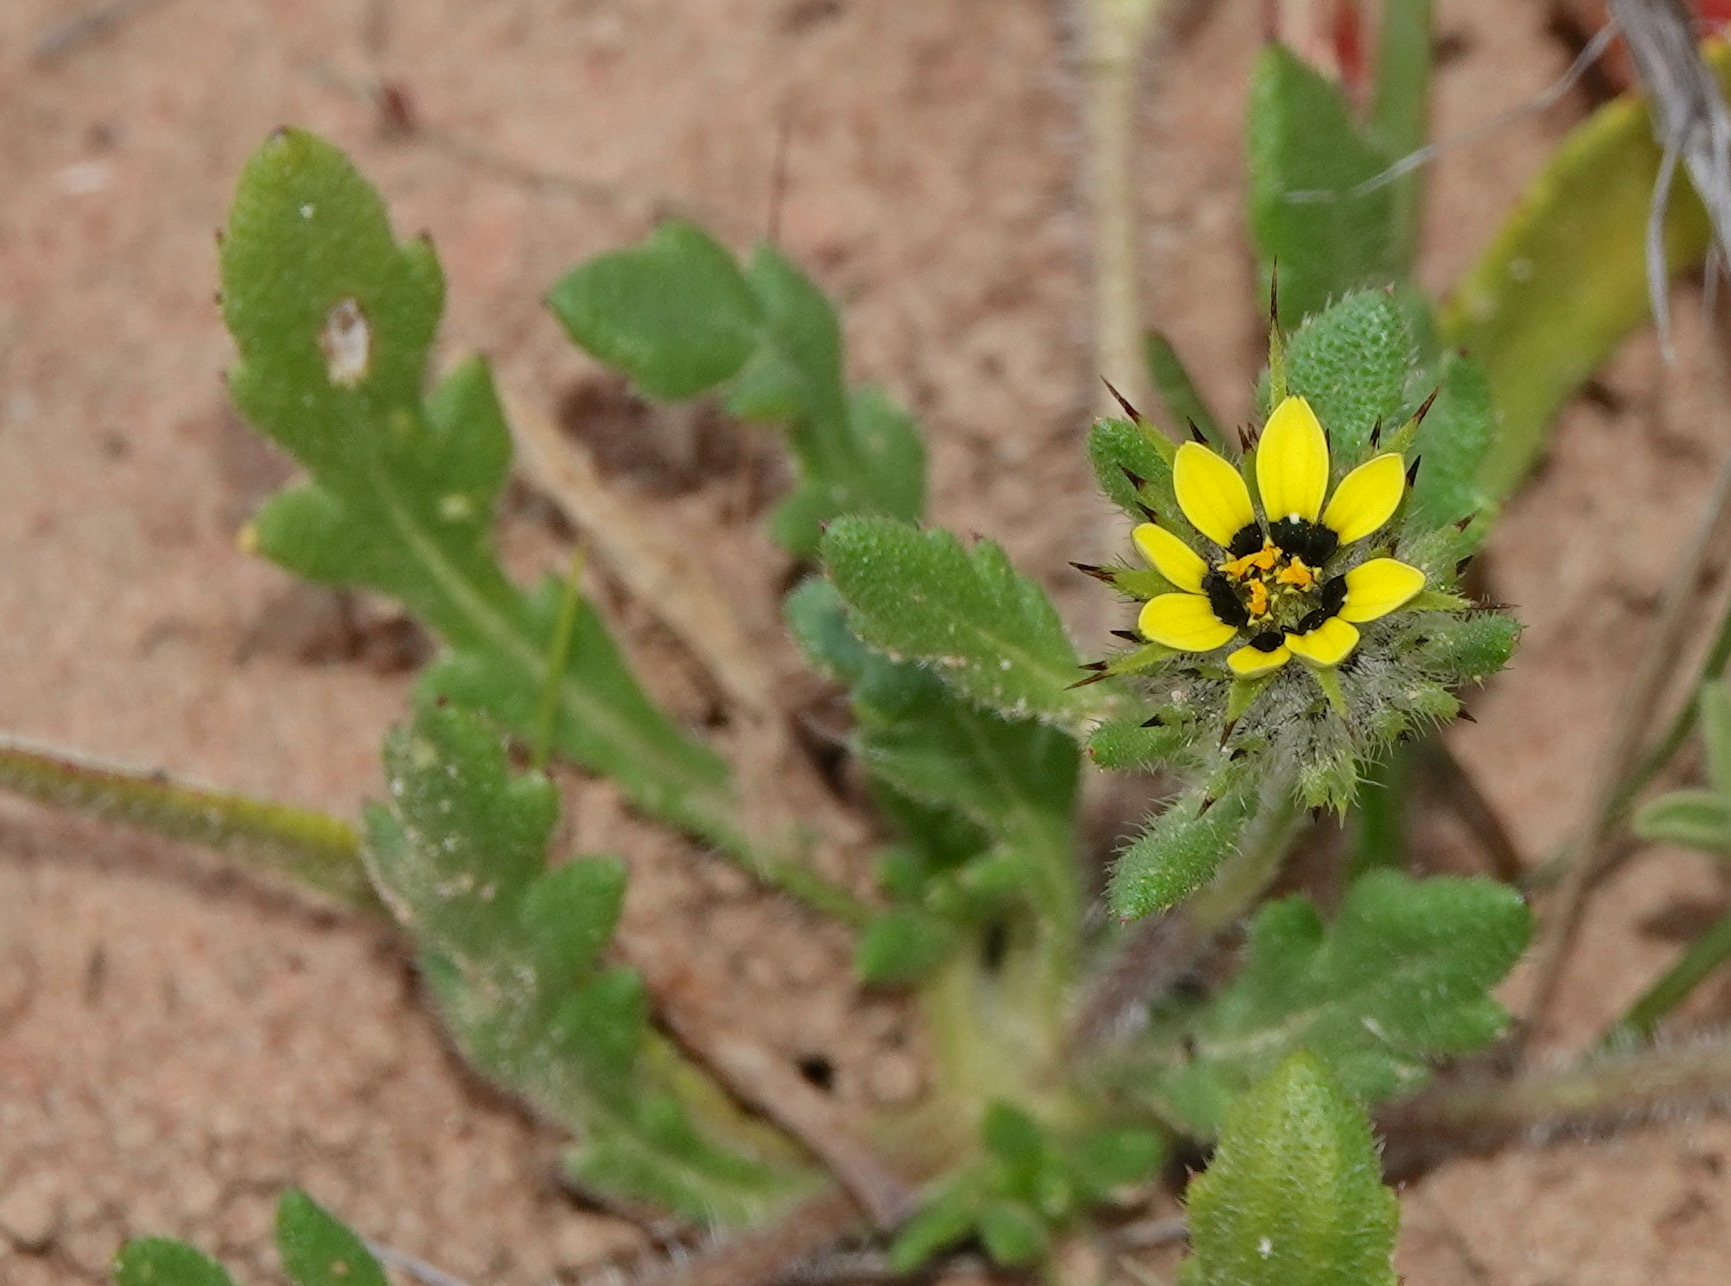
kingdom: Plantae
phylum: Tracheophyta
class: Magnoliopsida
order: Asterales
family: Asteraceae
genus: Gorteria
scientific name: Gorteria personata
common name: Gorteria
